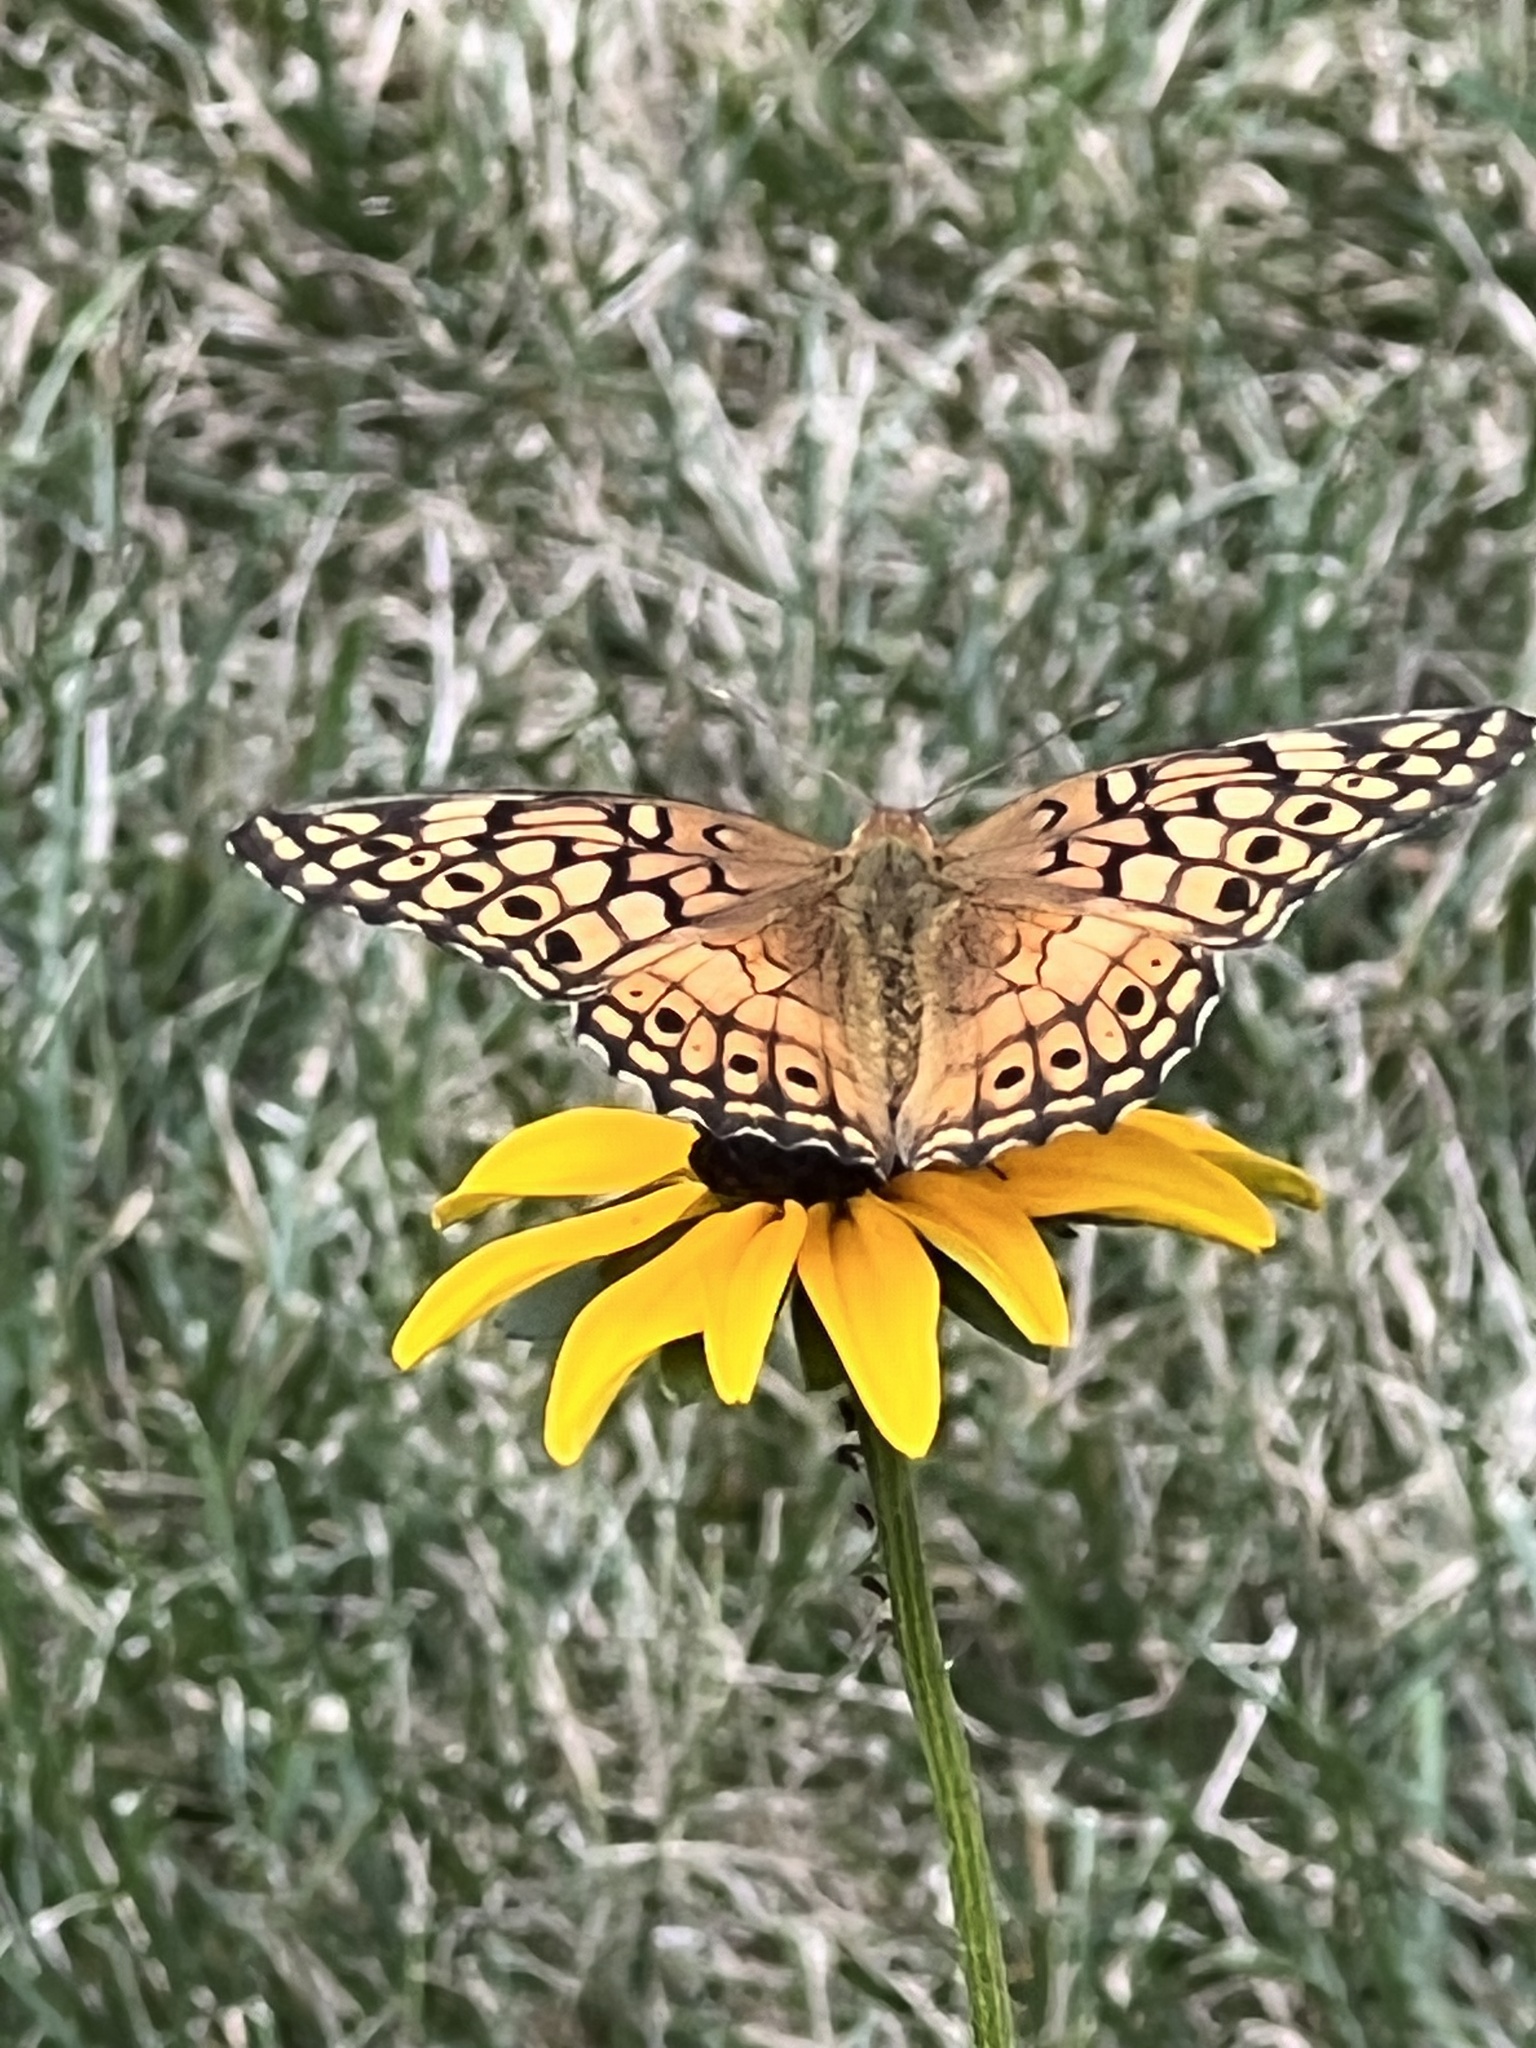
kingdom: Animalia
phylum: Arthropoda
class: Insecta
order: Lepidoptera
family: Nymphalidae
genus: Euptoieta
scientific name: Euptoieta claudia
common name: Variegated fritillary
